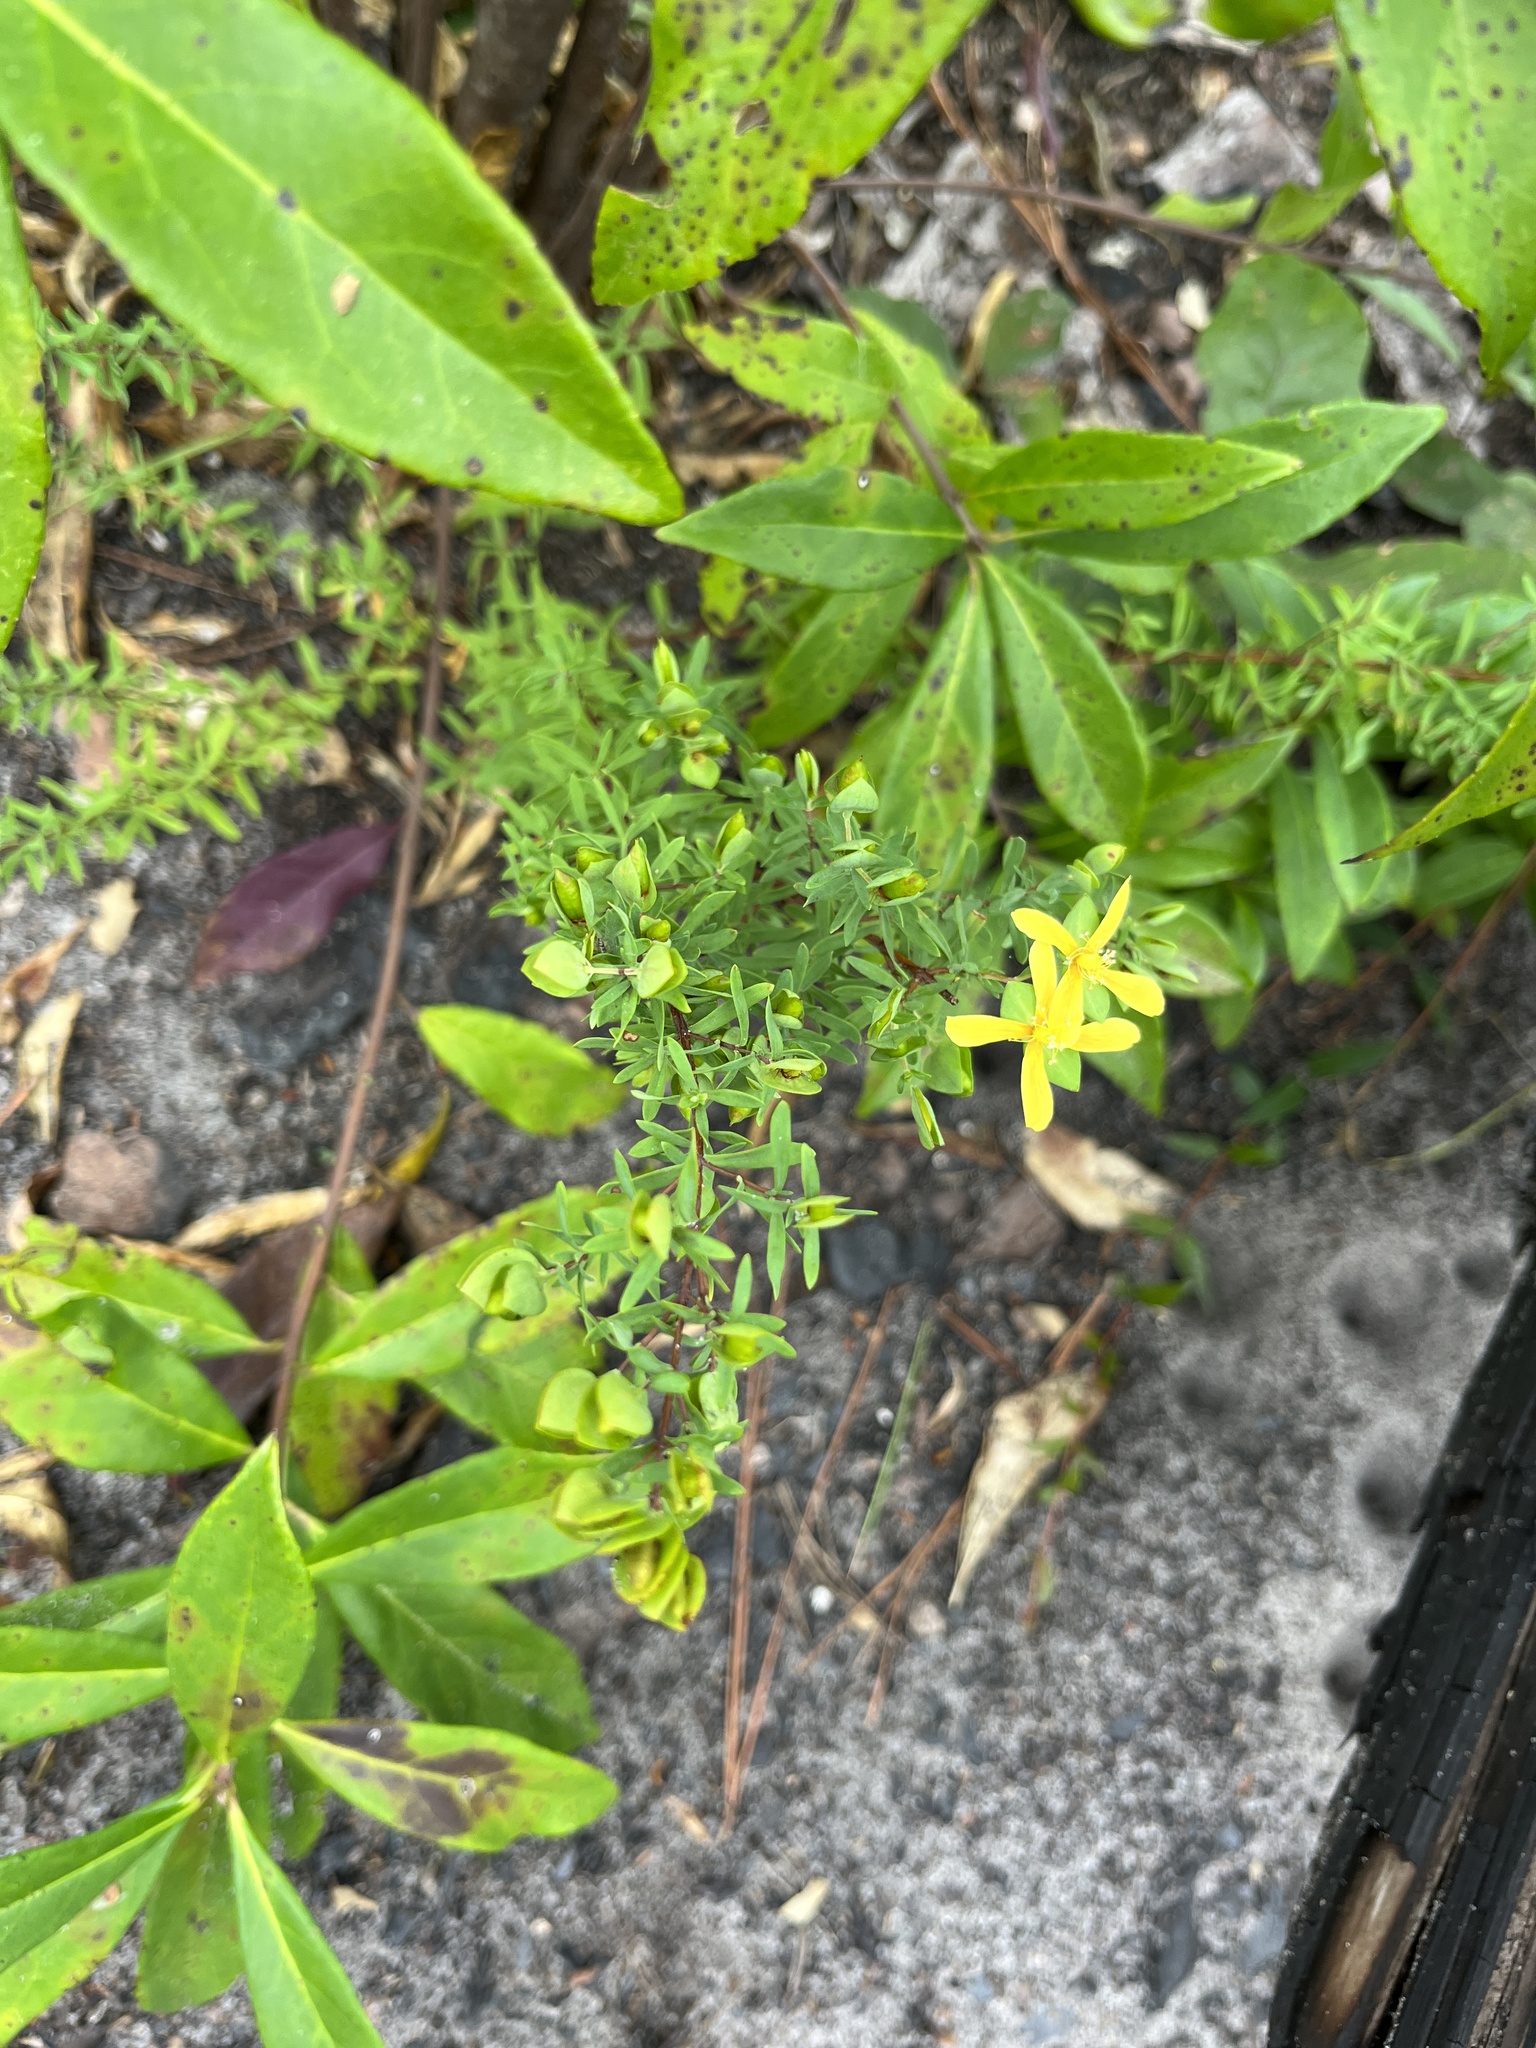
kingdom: Plantae
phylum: Tracheophyta
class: Magnoliopsida
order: Malpighiales
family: Hypericaceae
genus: Hypericum
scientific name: Hypericum hypericoides
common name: St. andrew's cross
